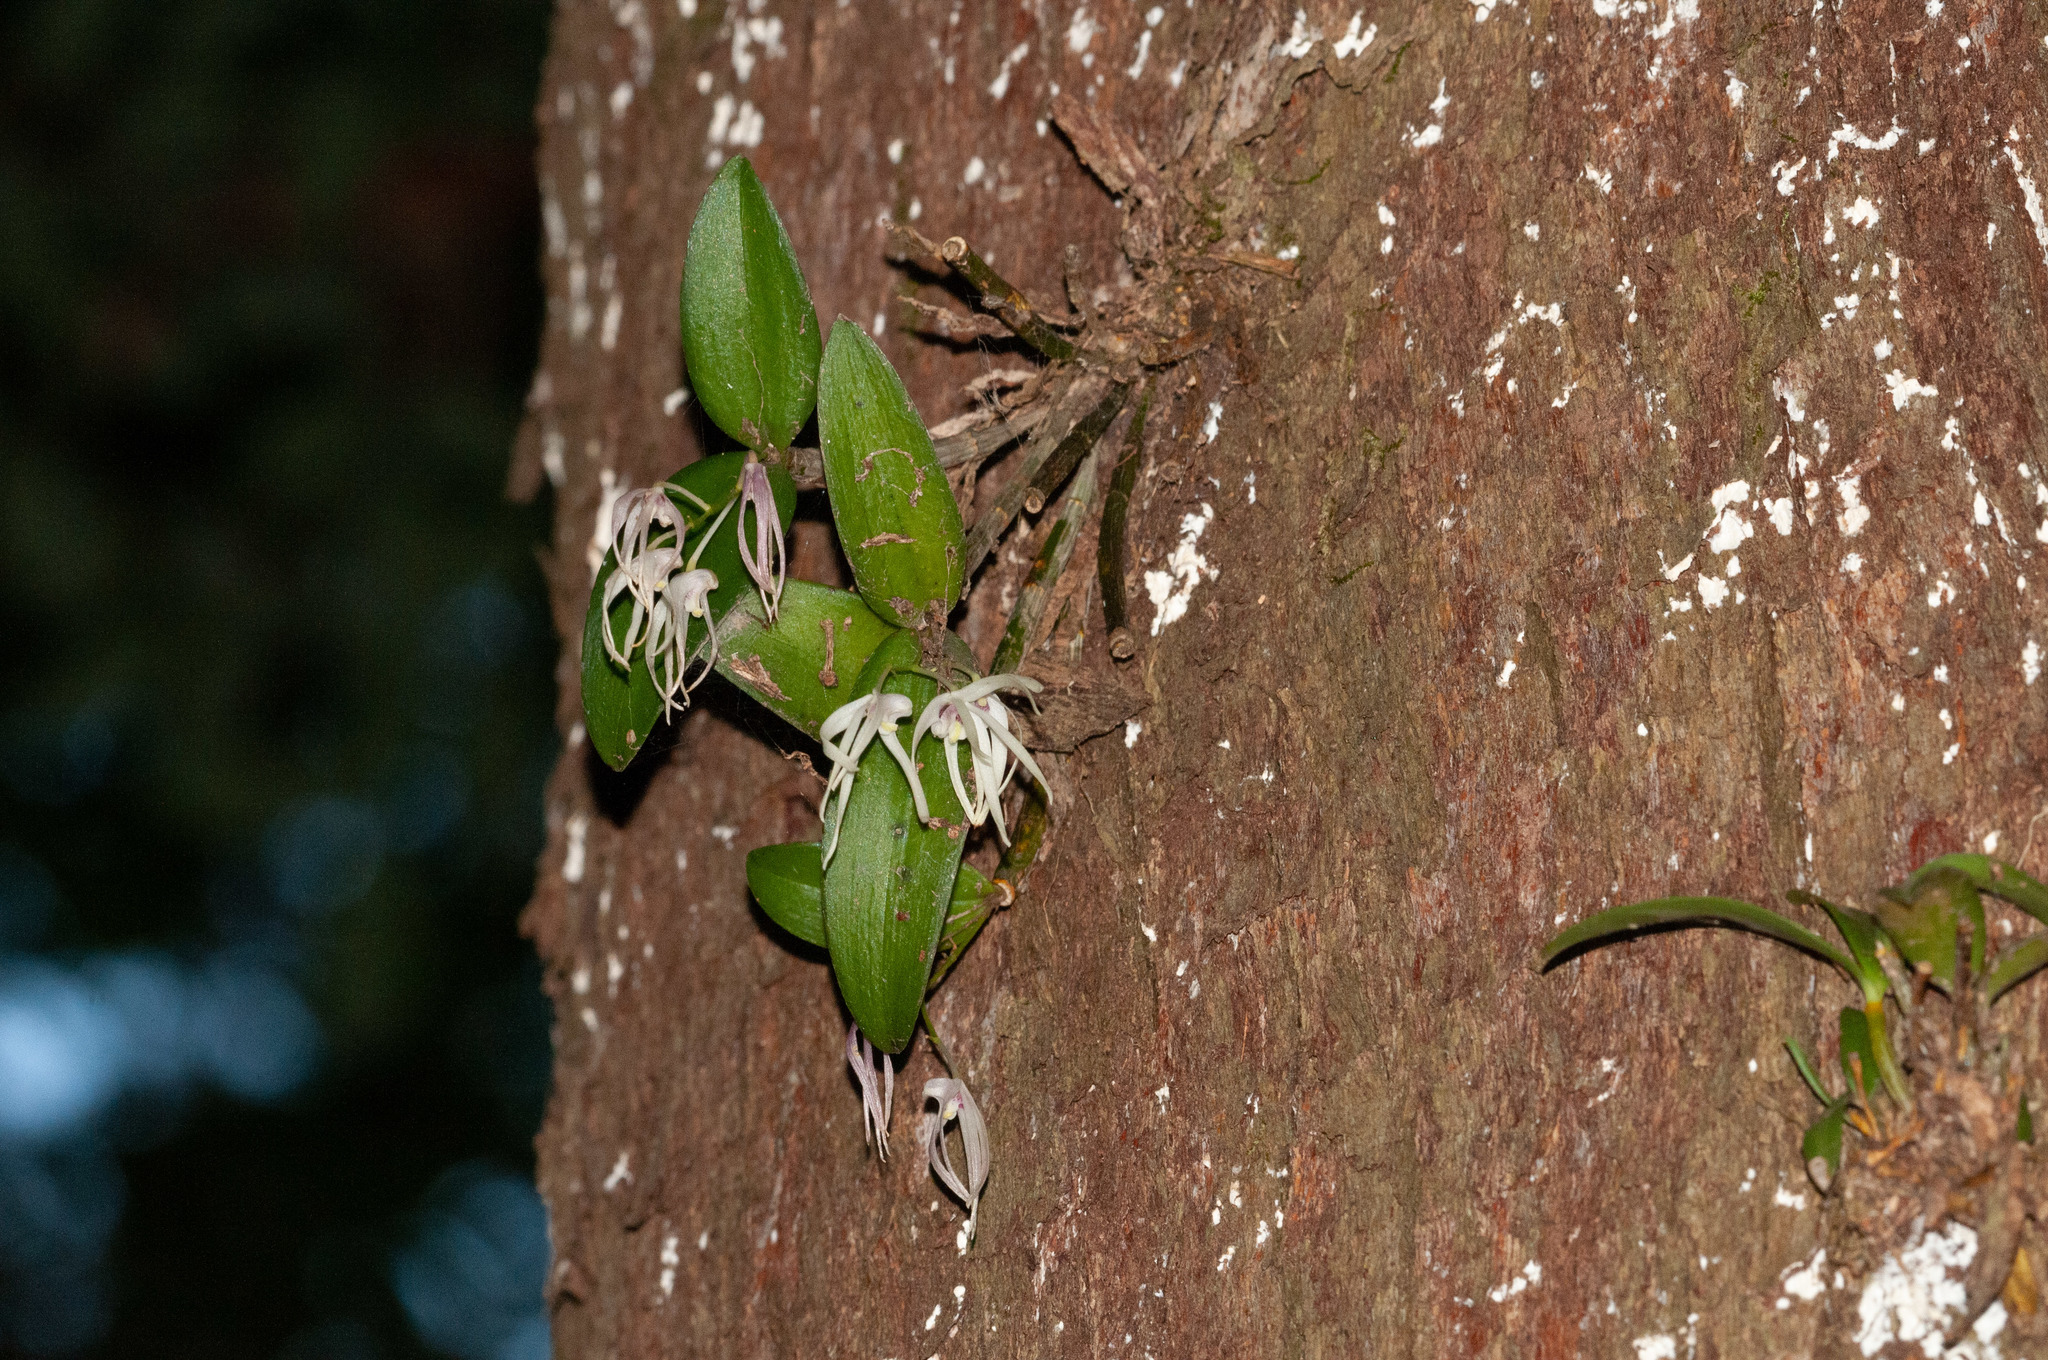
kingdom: Plantae
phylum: Tracheophyta
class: Liliopsida
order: Asparagales
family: Orchidaceae
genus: Dendrobium
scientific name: Dendrobium aemulum
